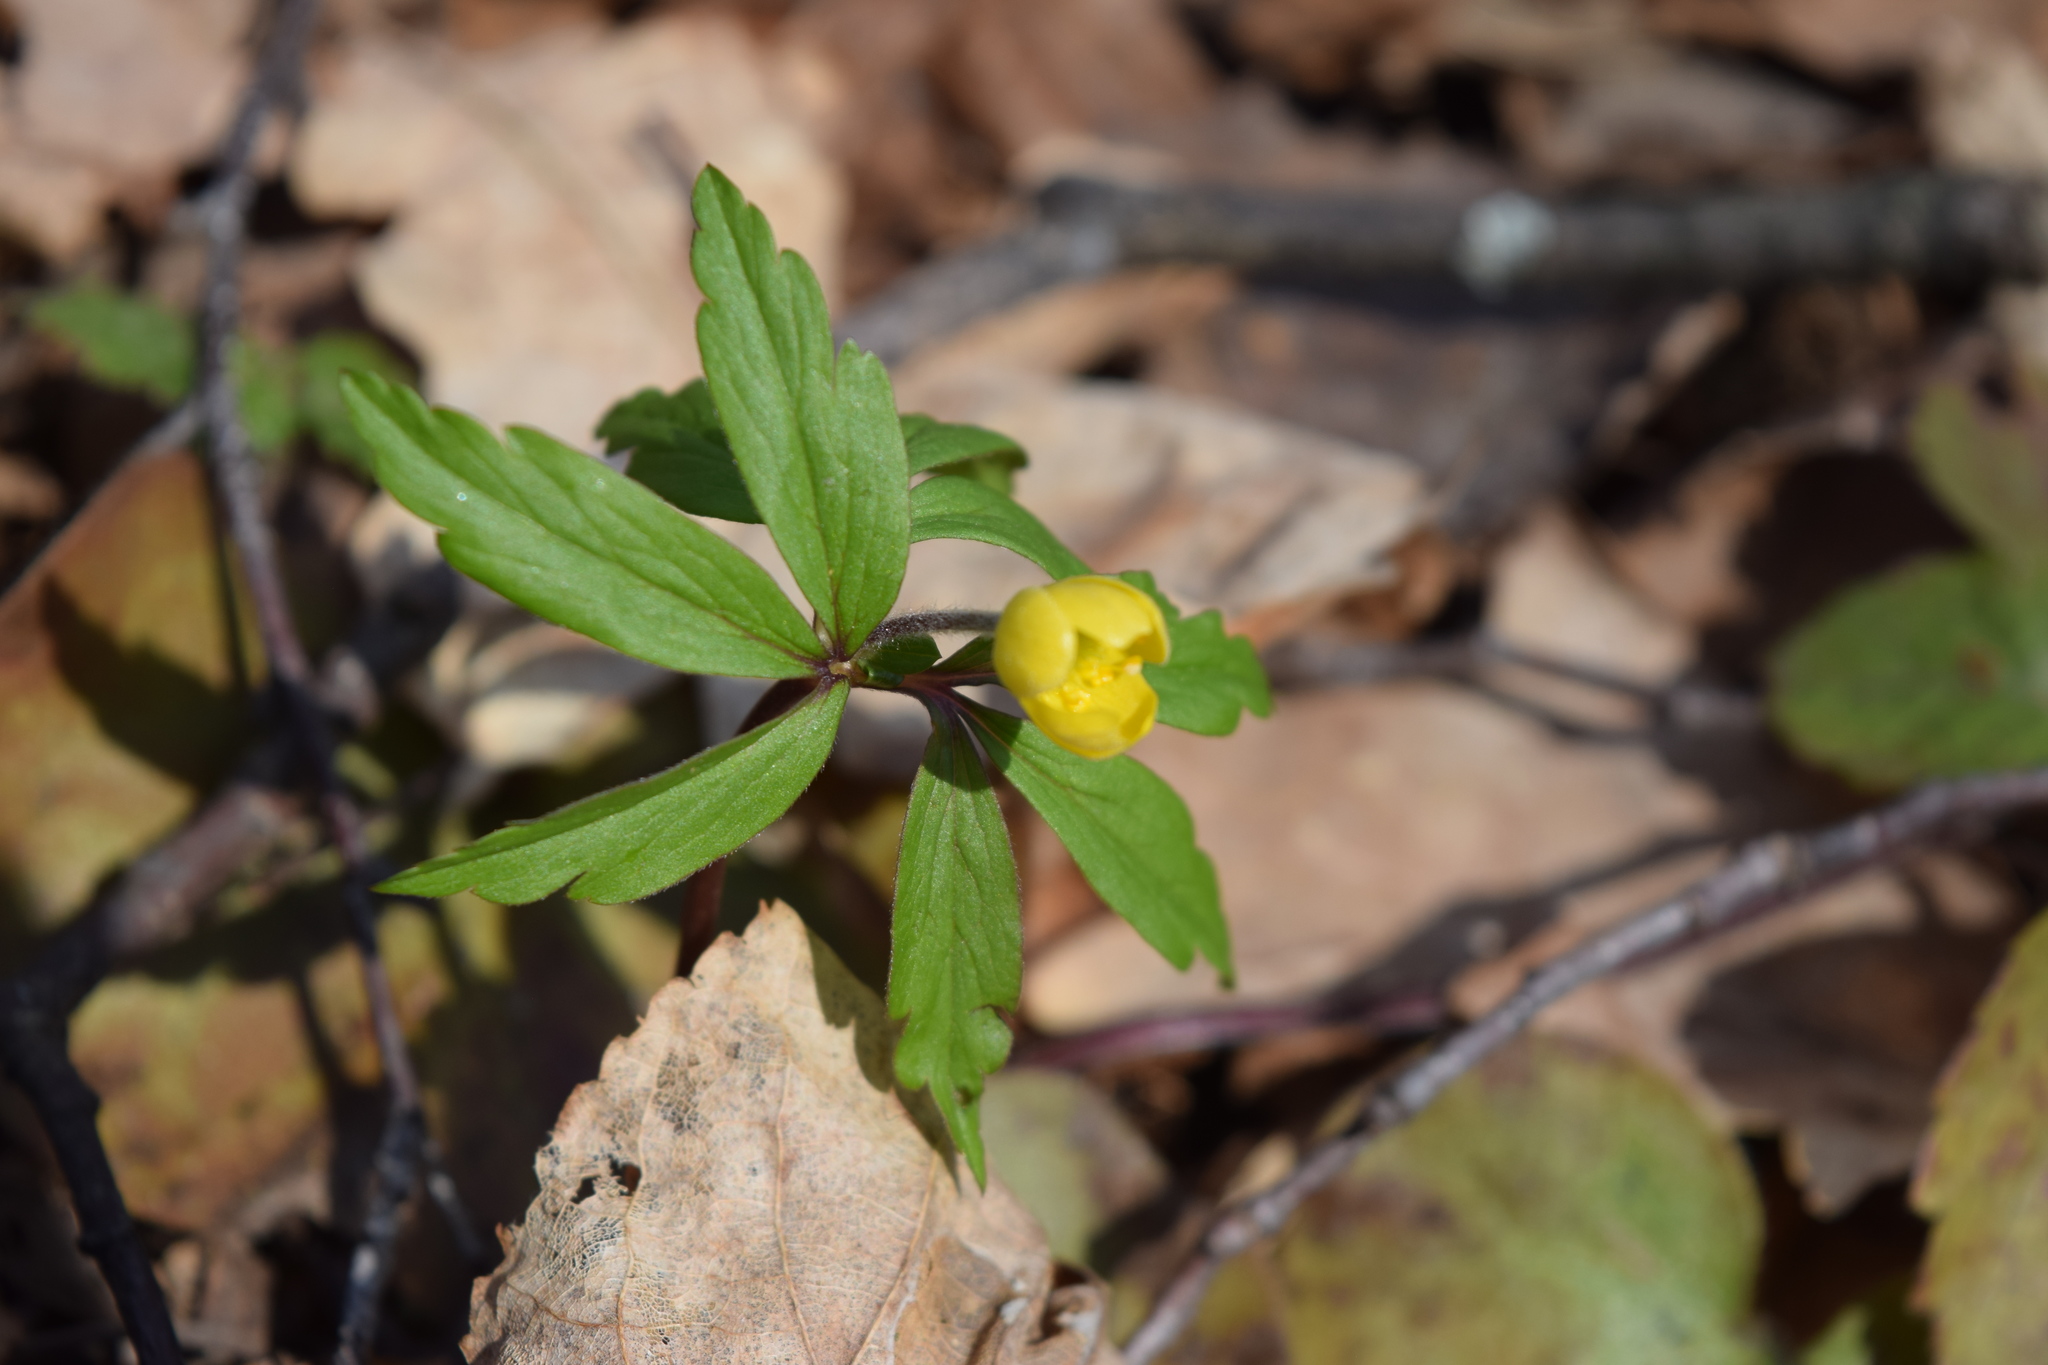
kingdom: Plantae
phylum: Tracheophyta
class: Magnoliopsida
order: Ranunculales
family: Ranunculaceae
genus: Anemone
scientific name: Anemone ranunculoides
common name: Yellow anemone
